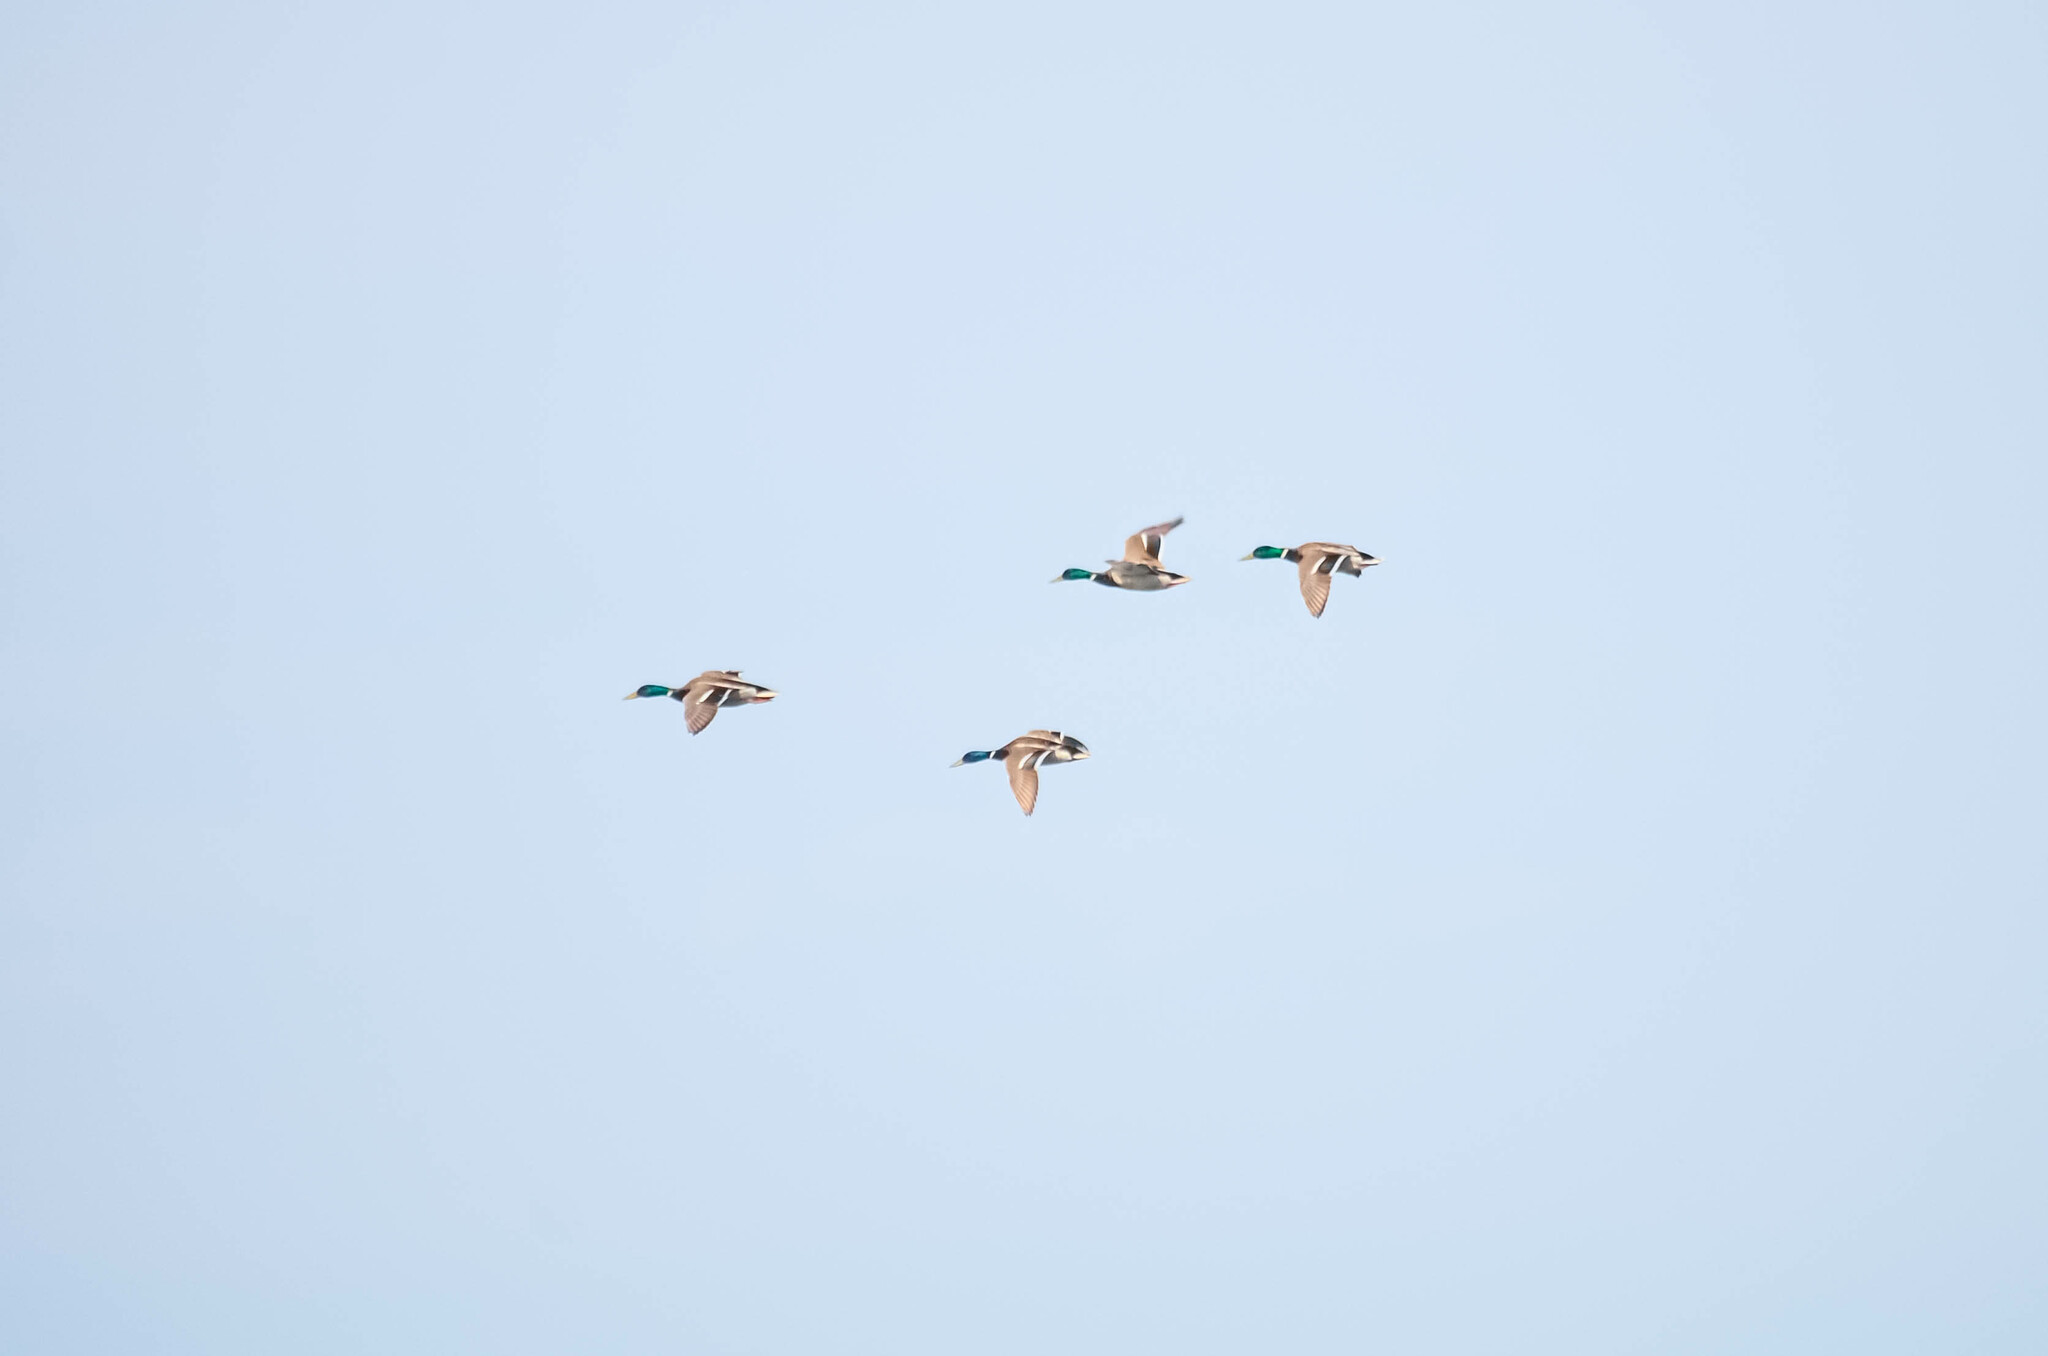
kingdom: Animalia
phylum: Chordata
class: Aves
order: Anseriformes
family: Anatidae
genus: Anas
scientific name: Anas platyrhynchos
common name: Mallard
